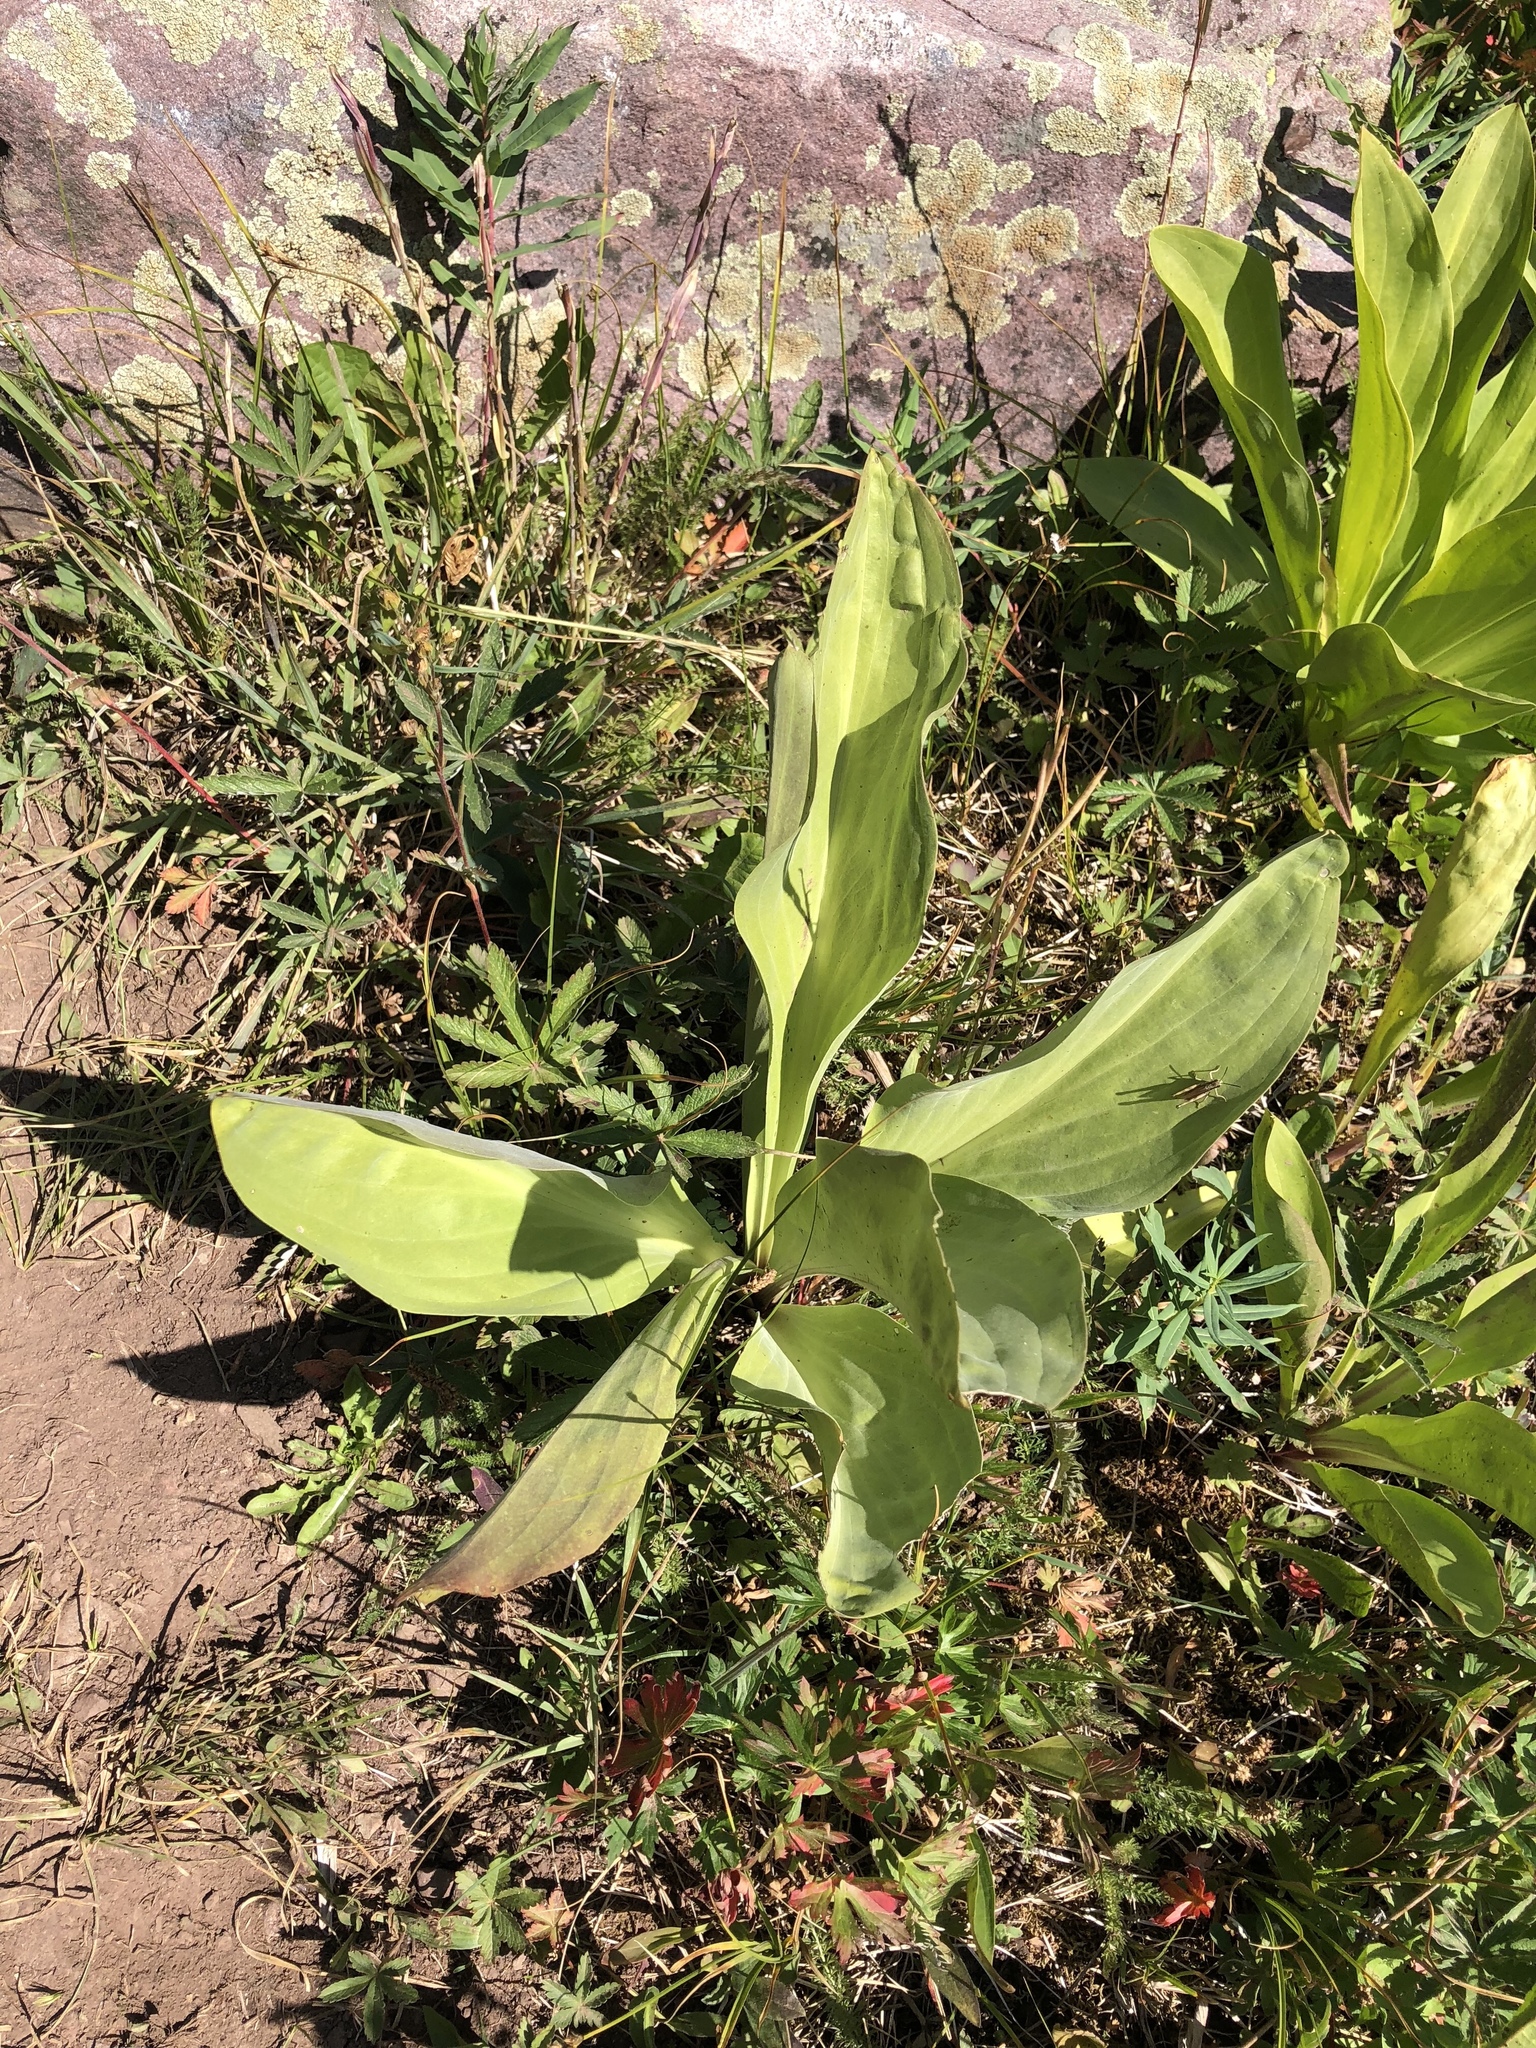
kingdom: Plantae
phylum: Tracheophyta
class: Magnoliopsida
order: Gentianales
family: Gentianaceae
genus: Frasera
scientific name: Frasera speciosa
